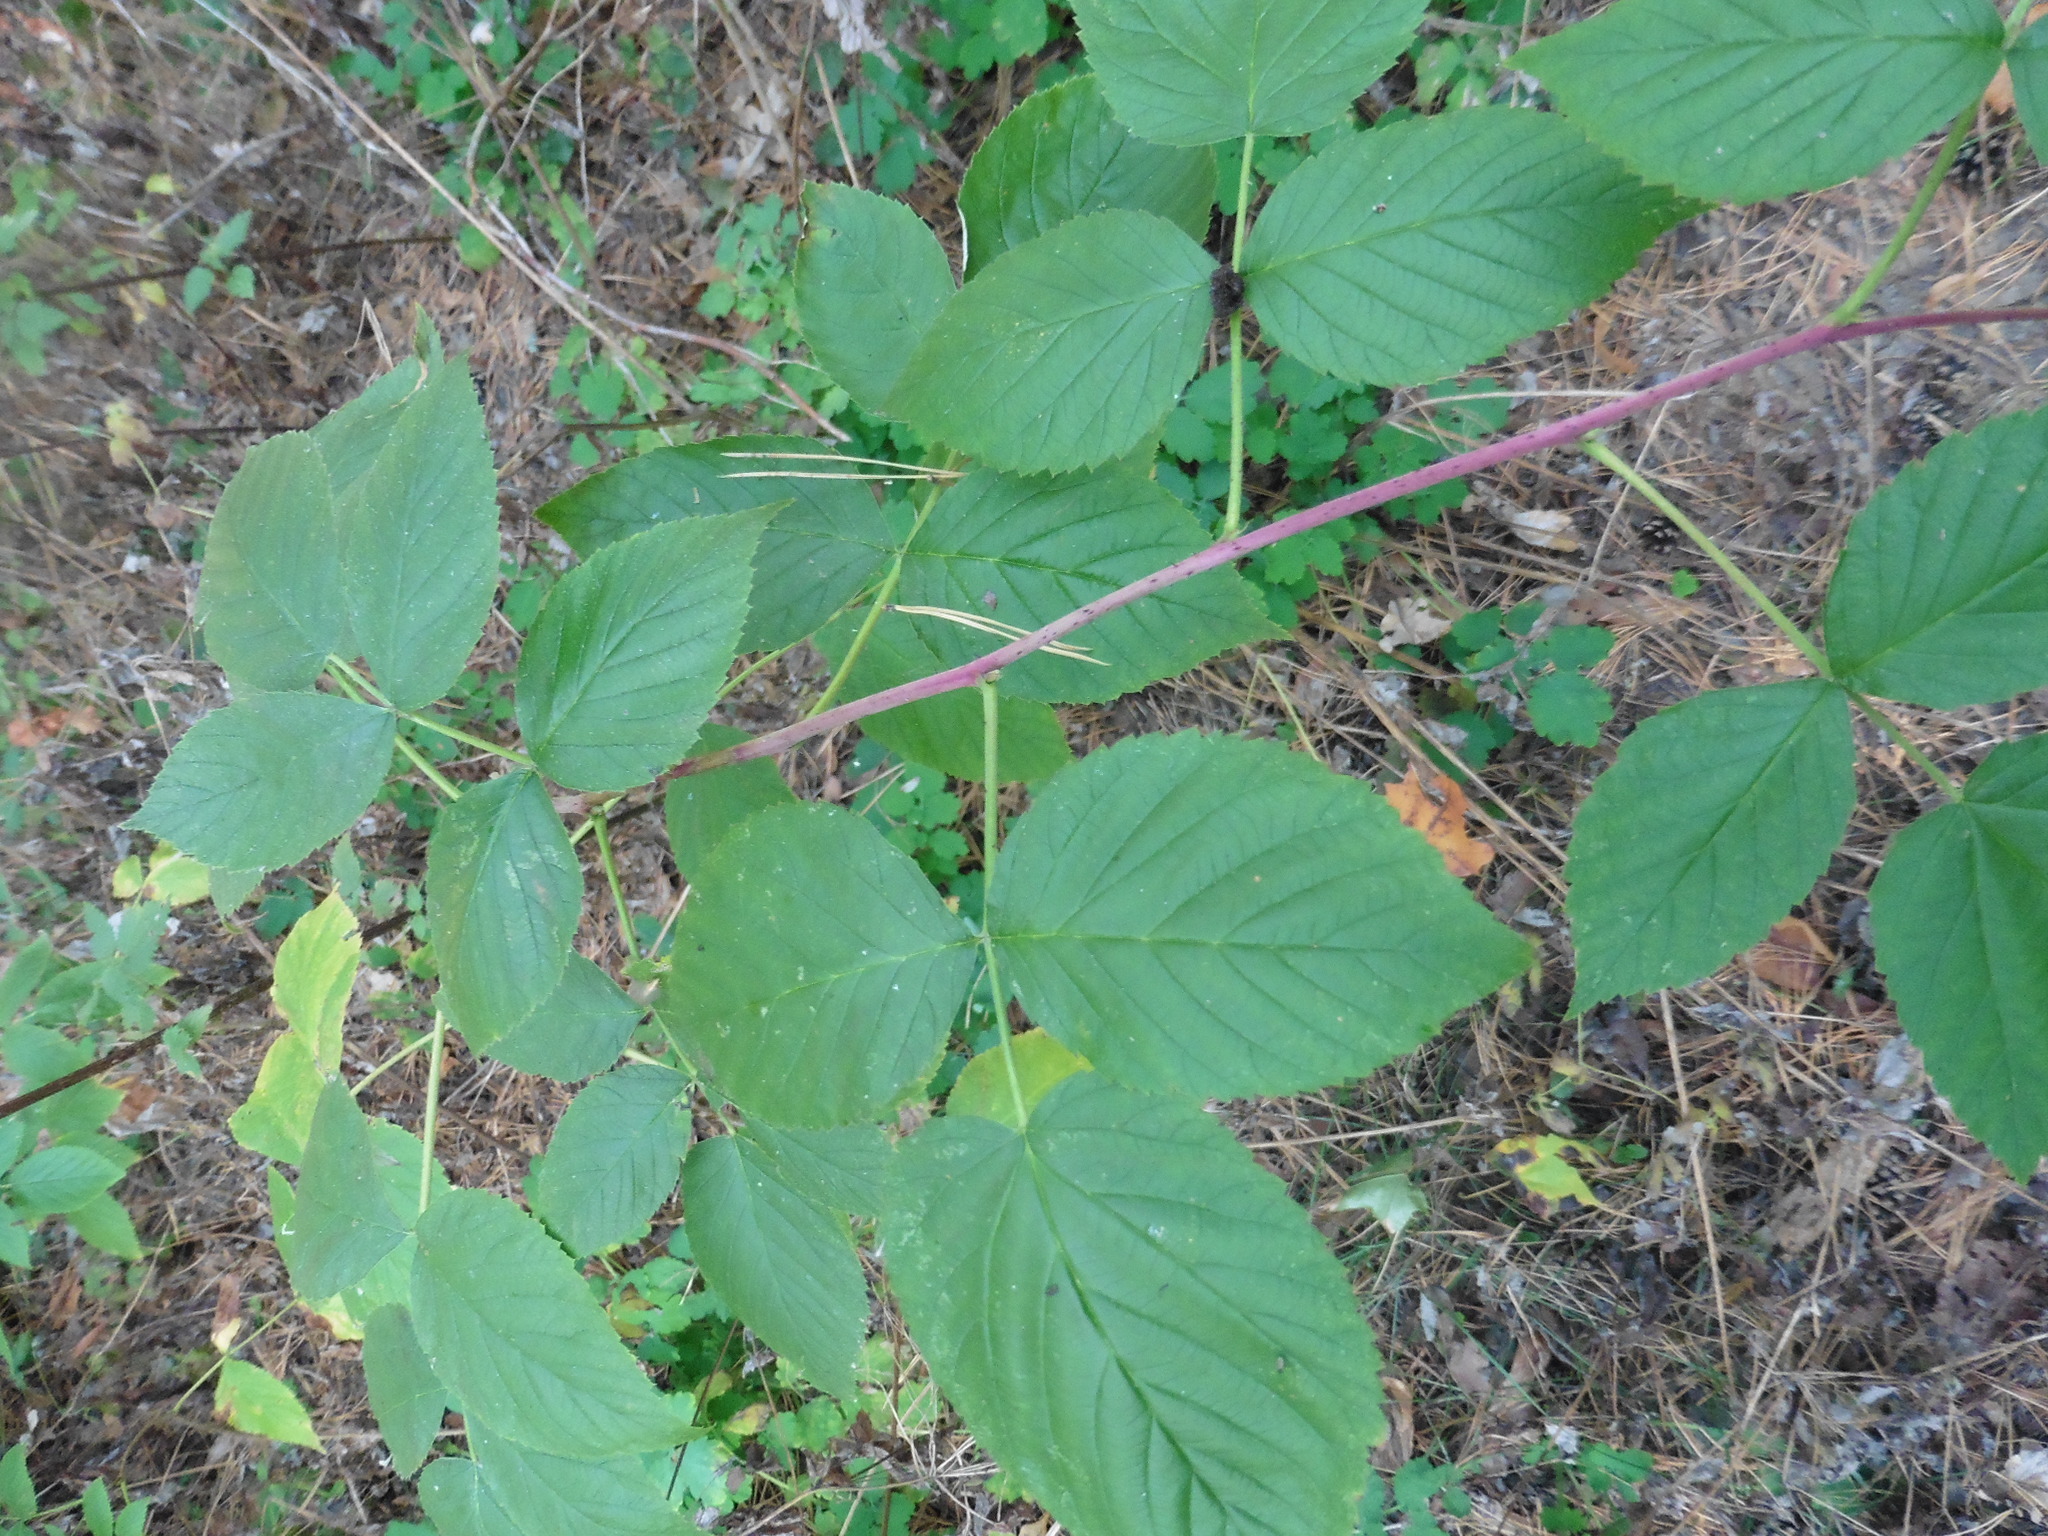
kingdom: Plantae
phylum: Tracheophyta
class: Magnoliopsida
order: Rosales
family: Rosaceae
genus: Rubus
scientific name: Rubus idaeus
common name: Raspberry
